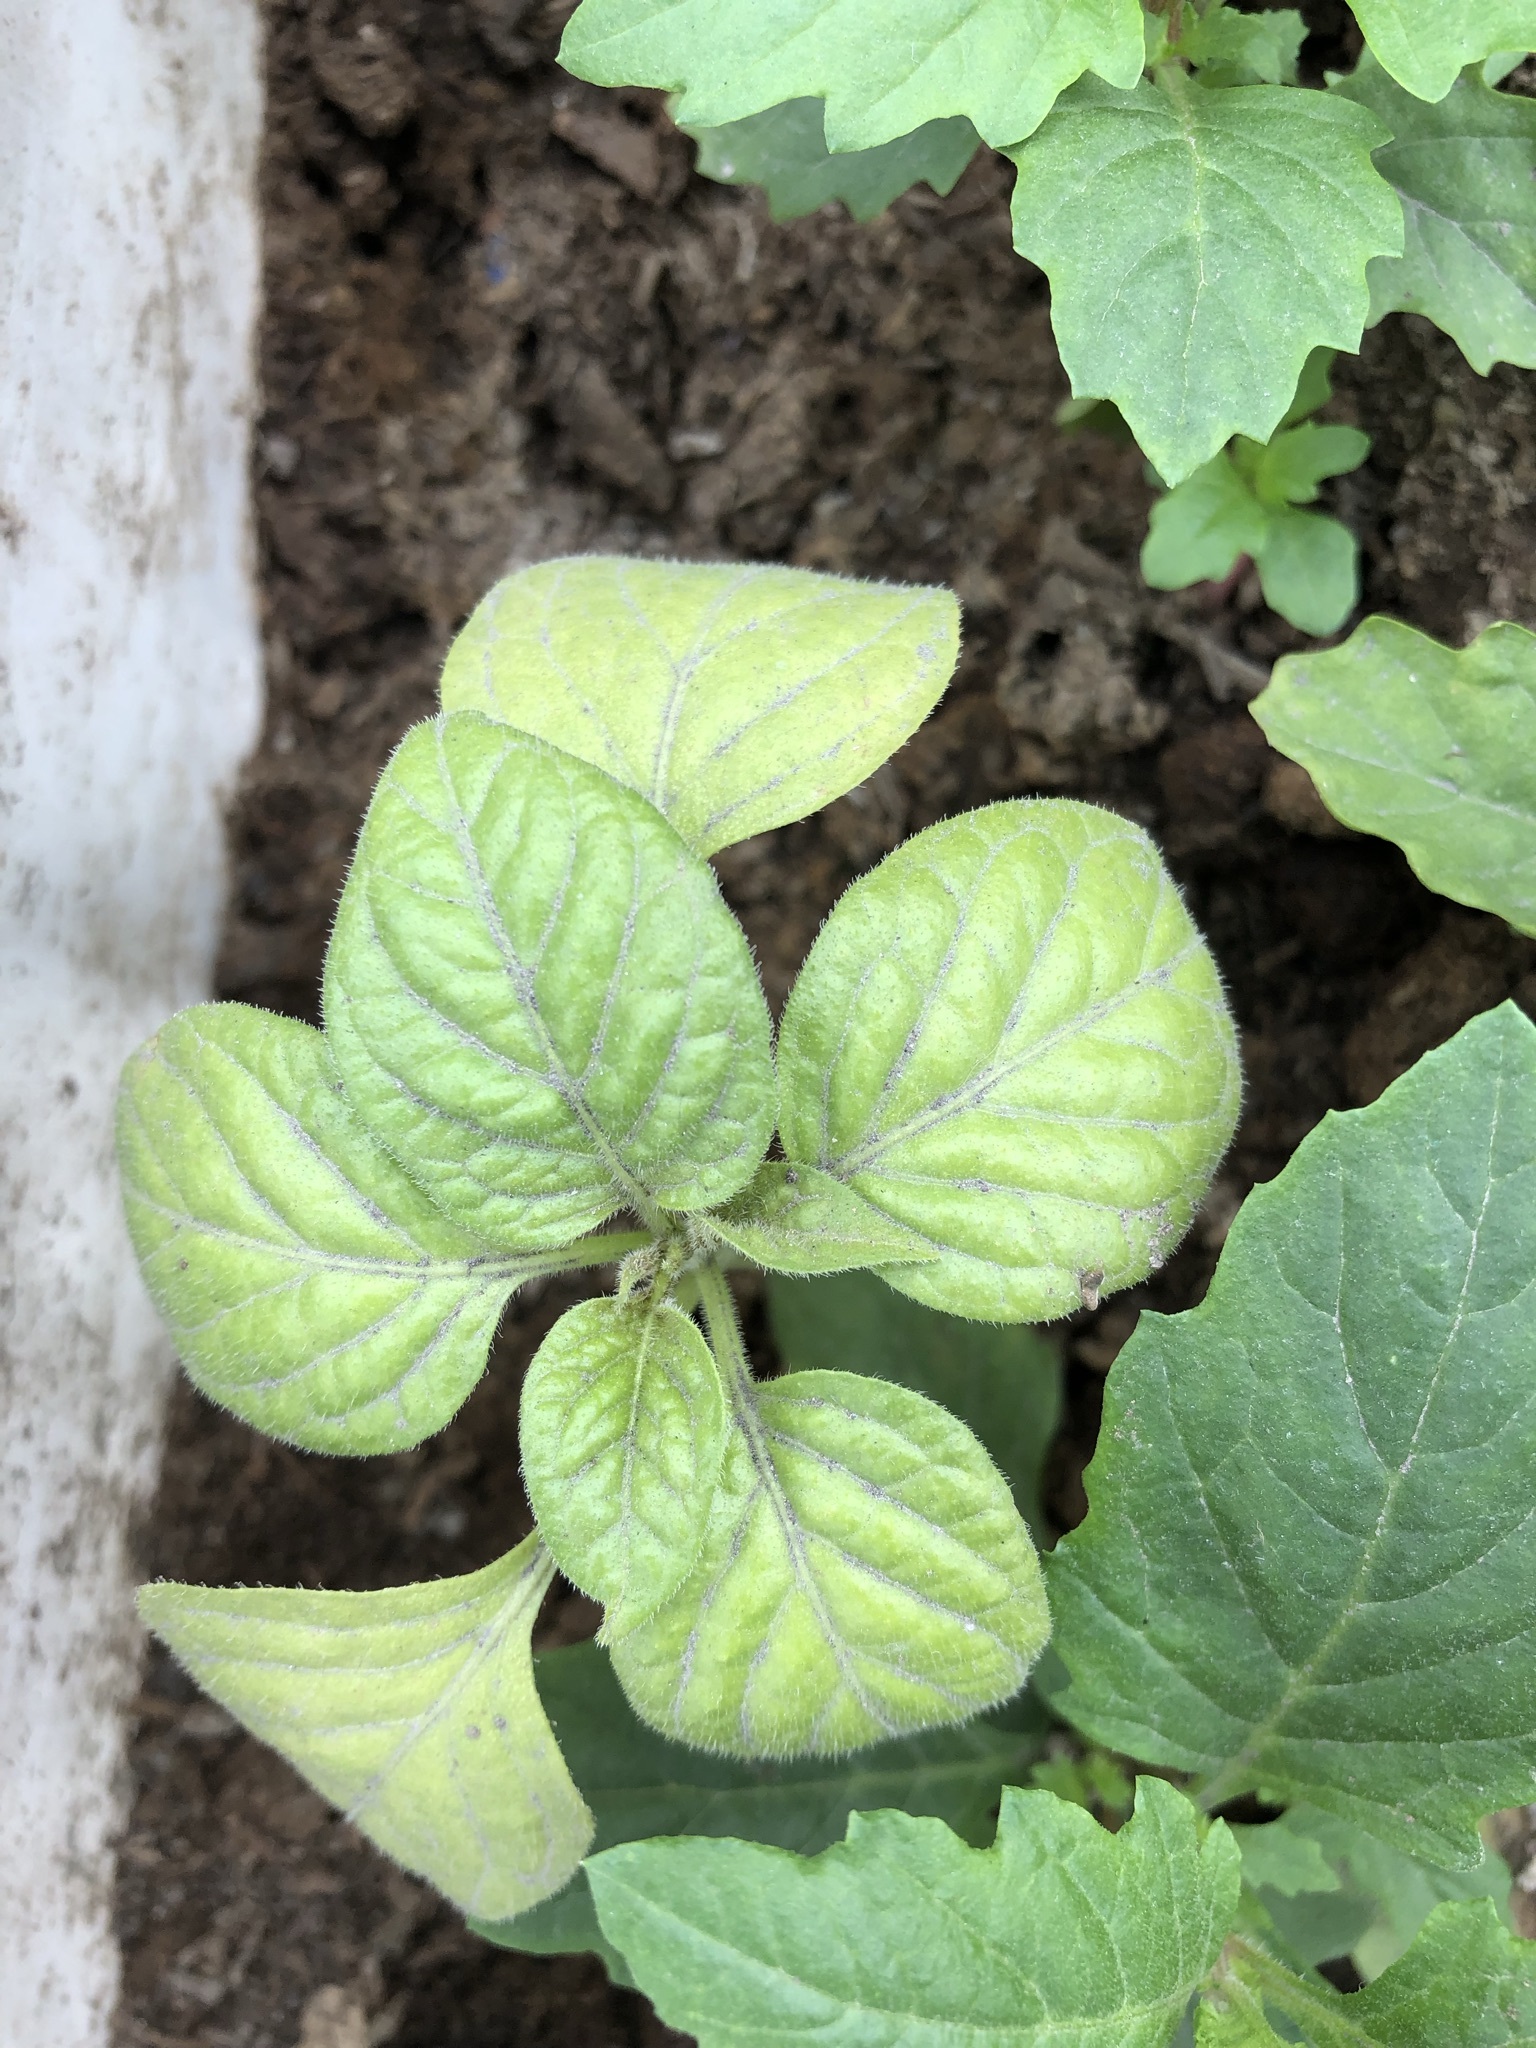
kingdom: Plantae
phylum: Tracheophyta
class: Magnoliopsida
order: Solanales
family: Solanaceae
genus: Solanum
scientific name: Solanum
